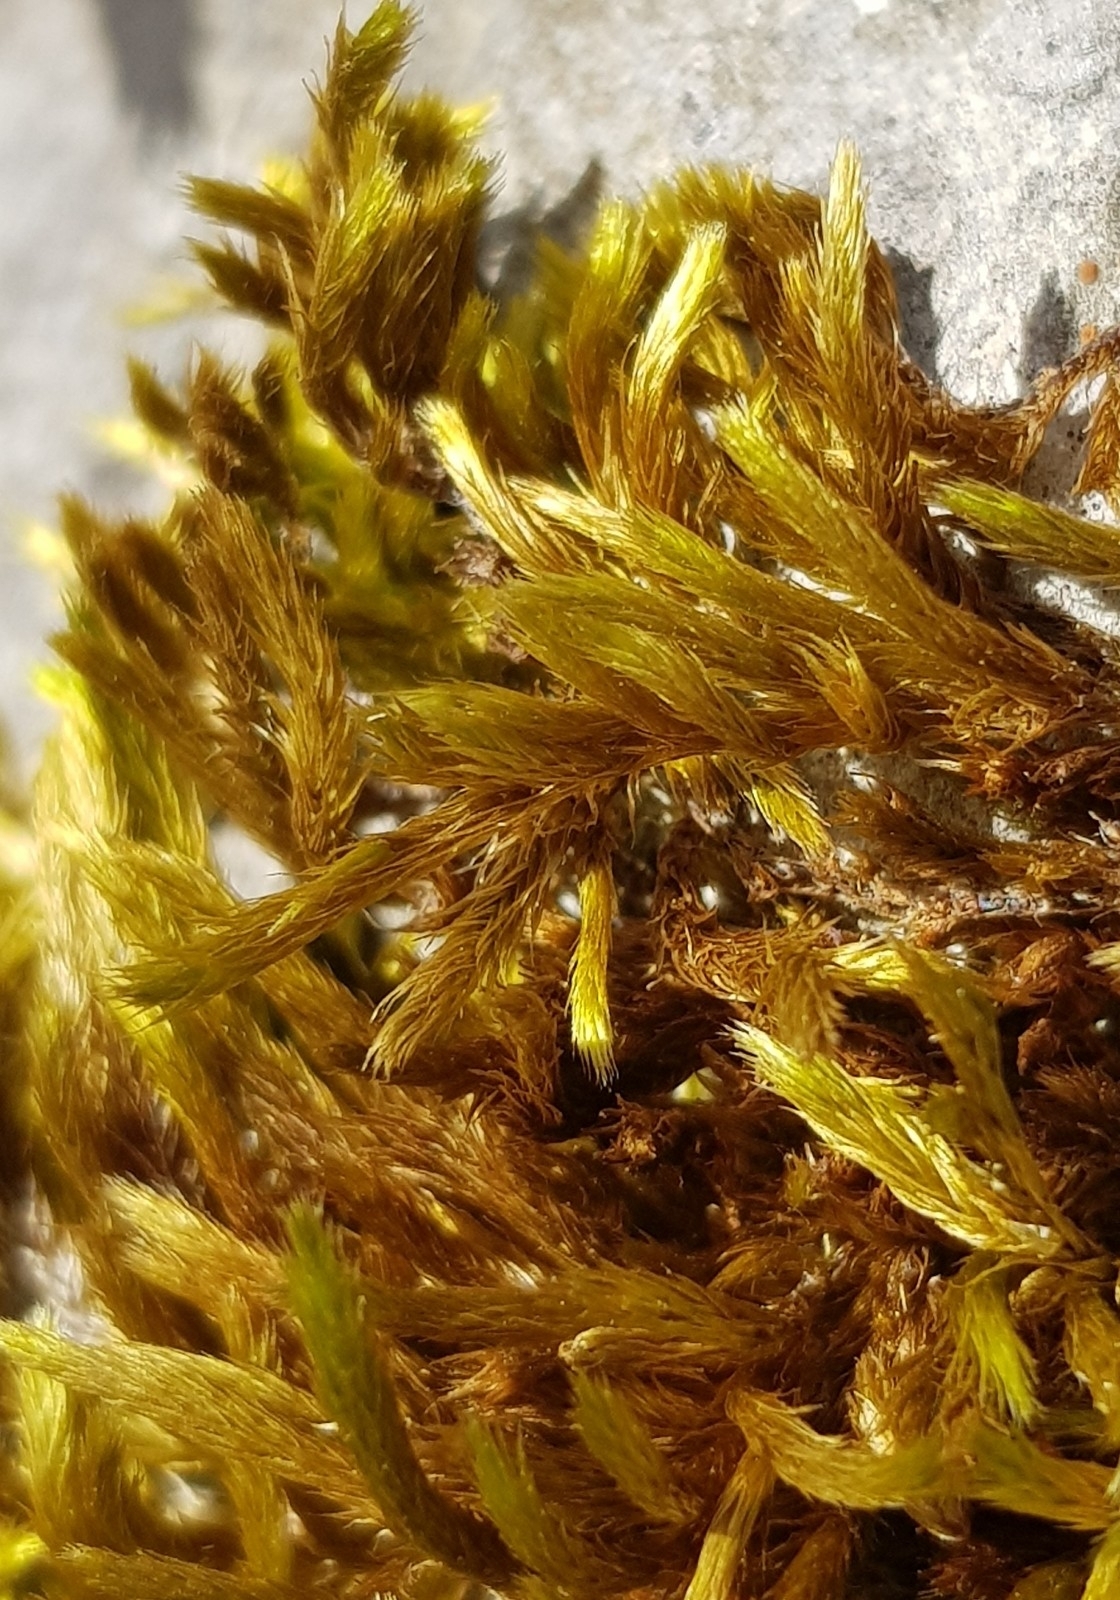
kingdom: Plantae
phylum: Bryophyta
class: Bryopsida
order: Hypnales
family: Brachytheciaceae
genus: Homalothecium
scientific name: Homalothecium lutescens
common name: Yellow feather-moss
